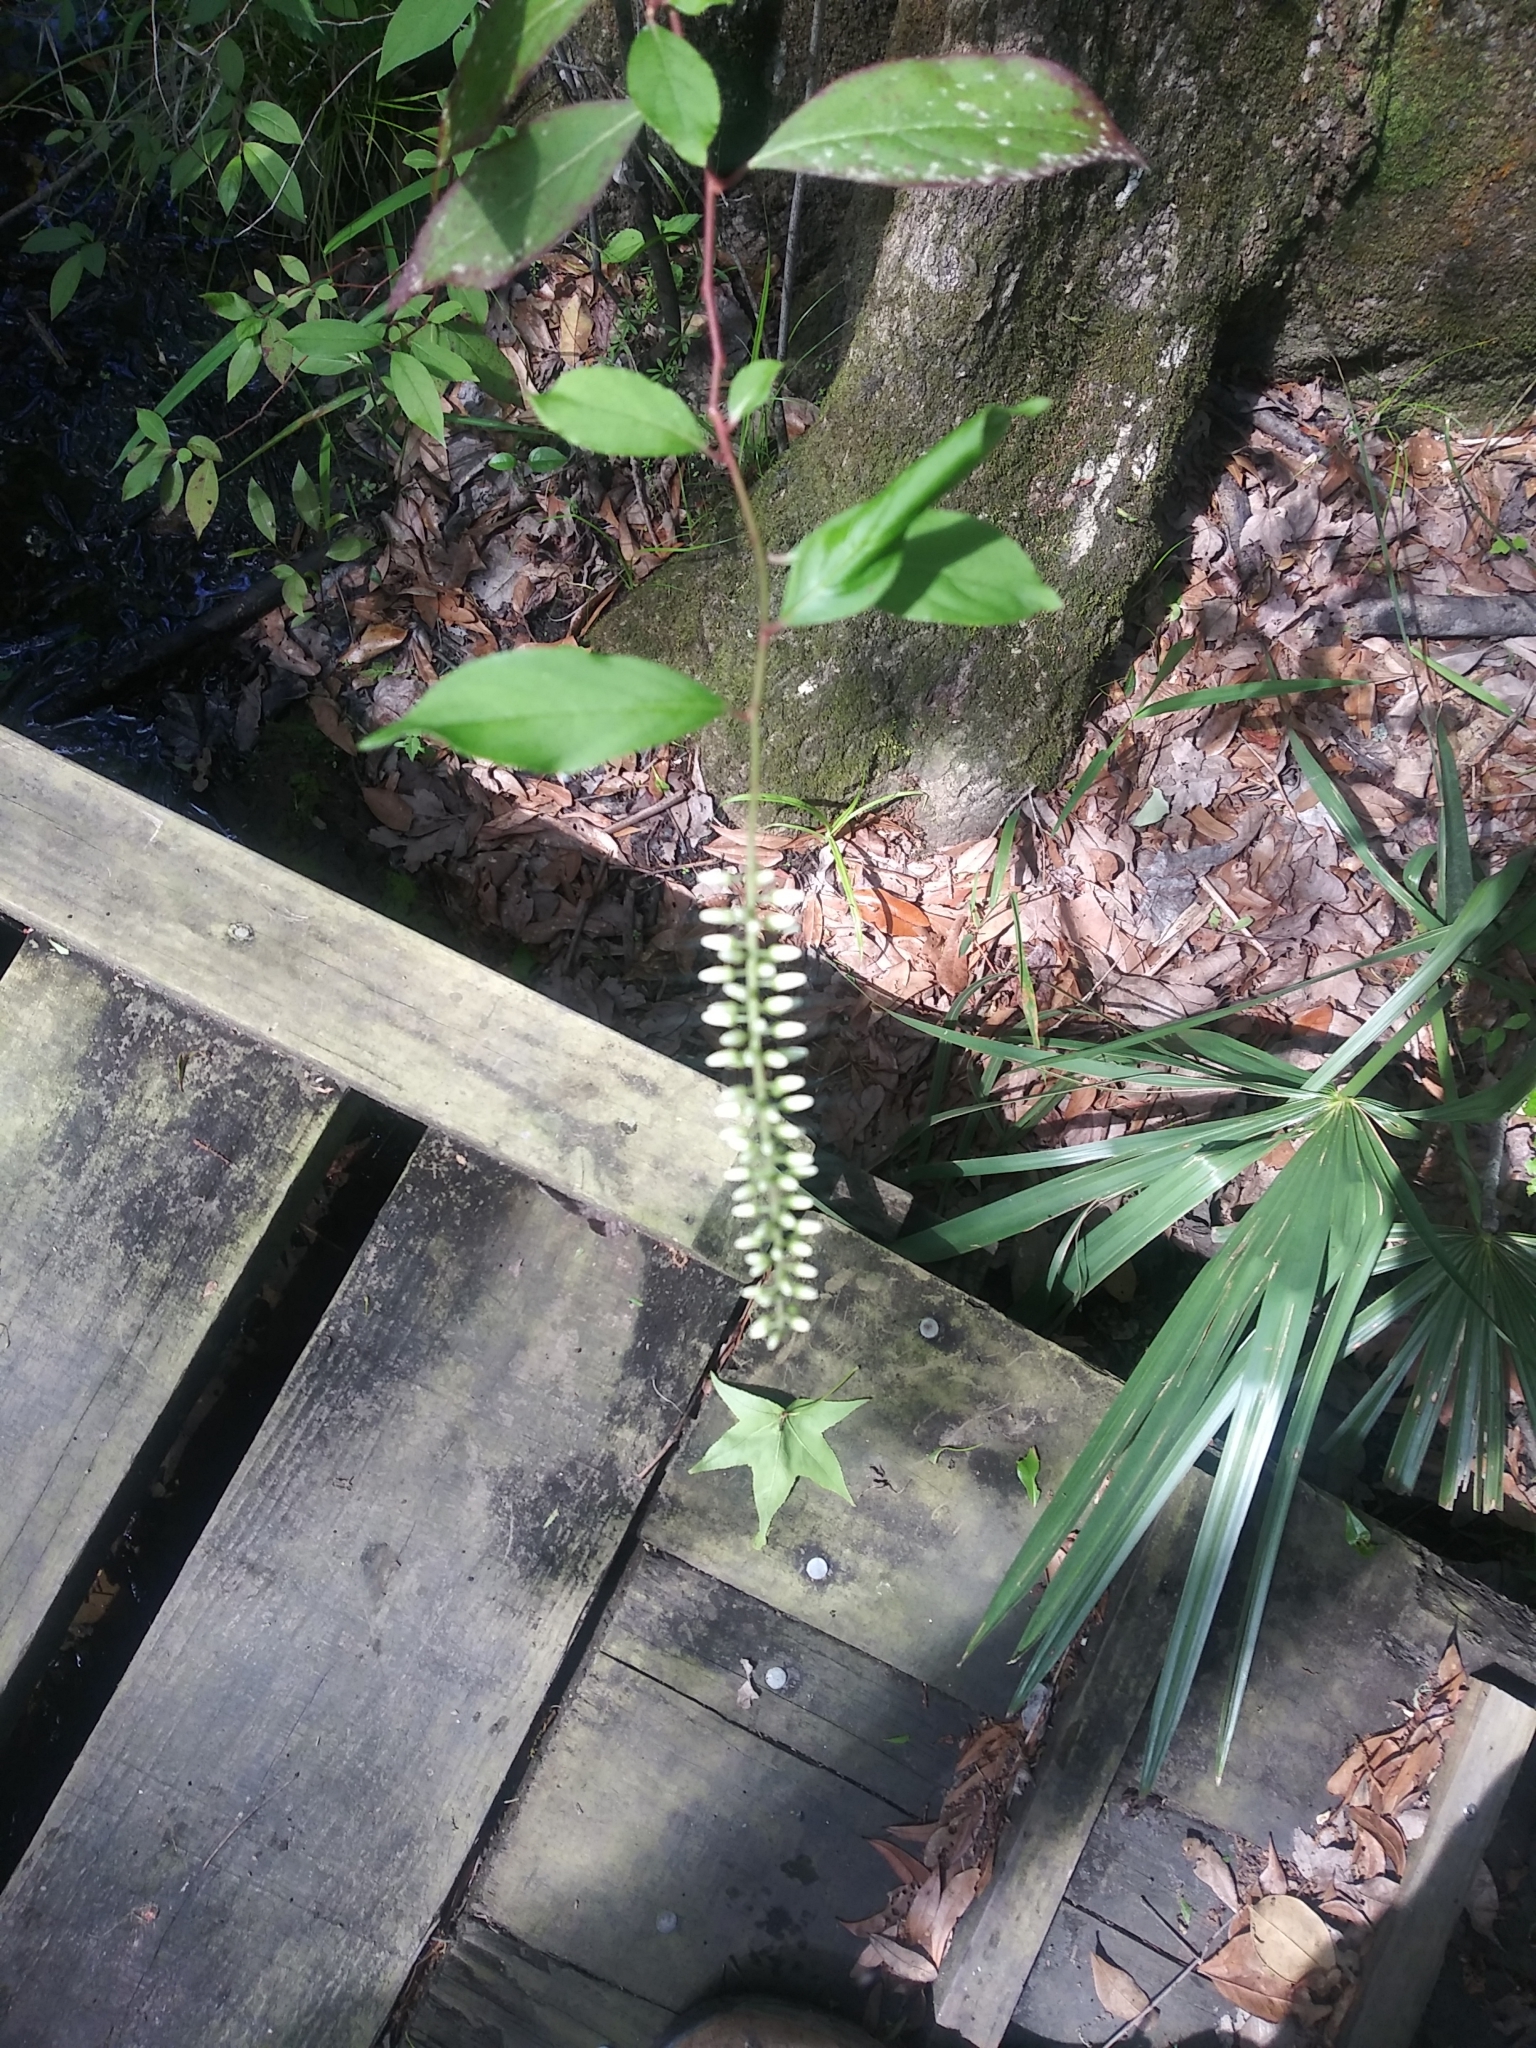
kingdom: Plantae
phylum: Tracheophyta
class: Magnoliopsida
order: Saxifragales
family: Iteaceae
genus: Itea
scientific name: Itea virginica
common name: Sweetspire
